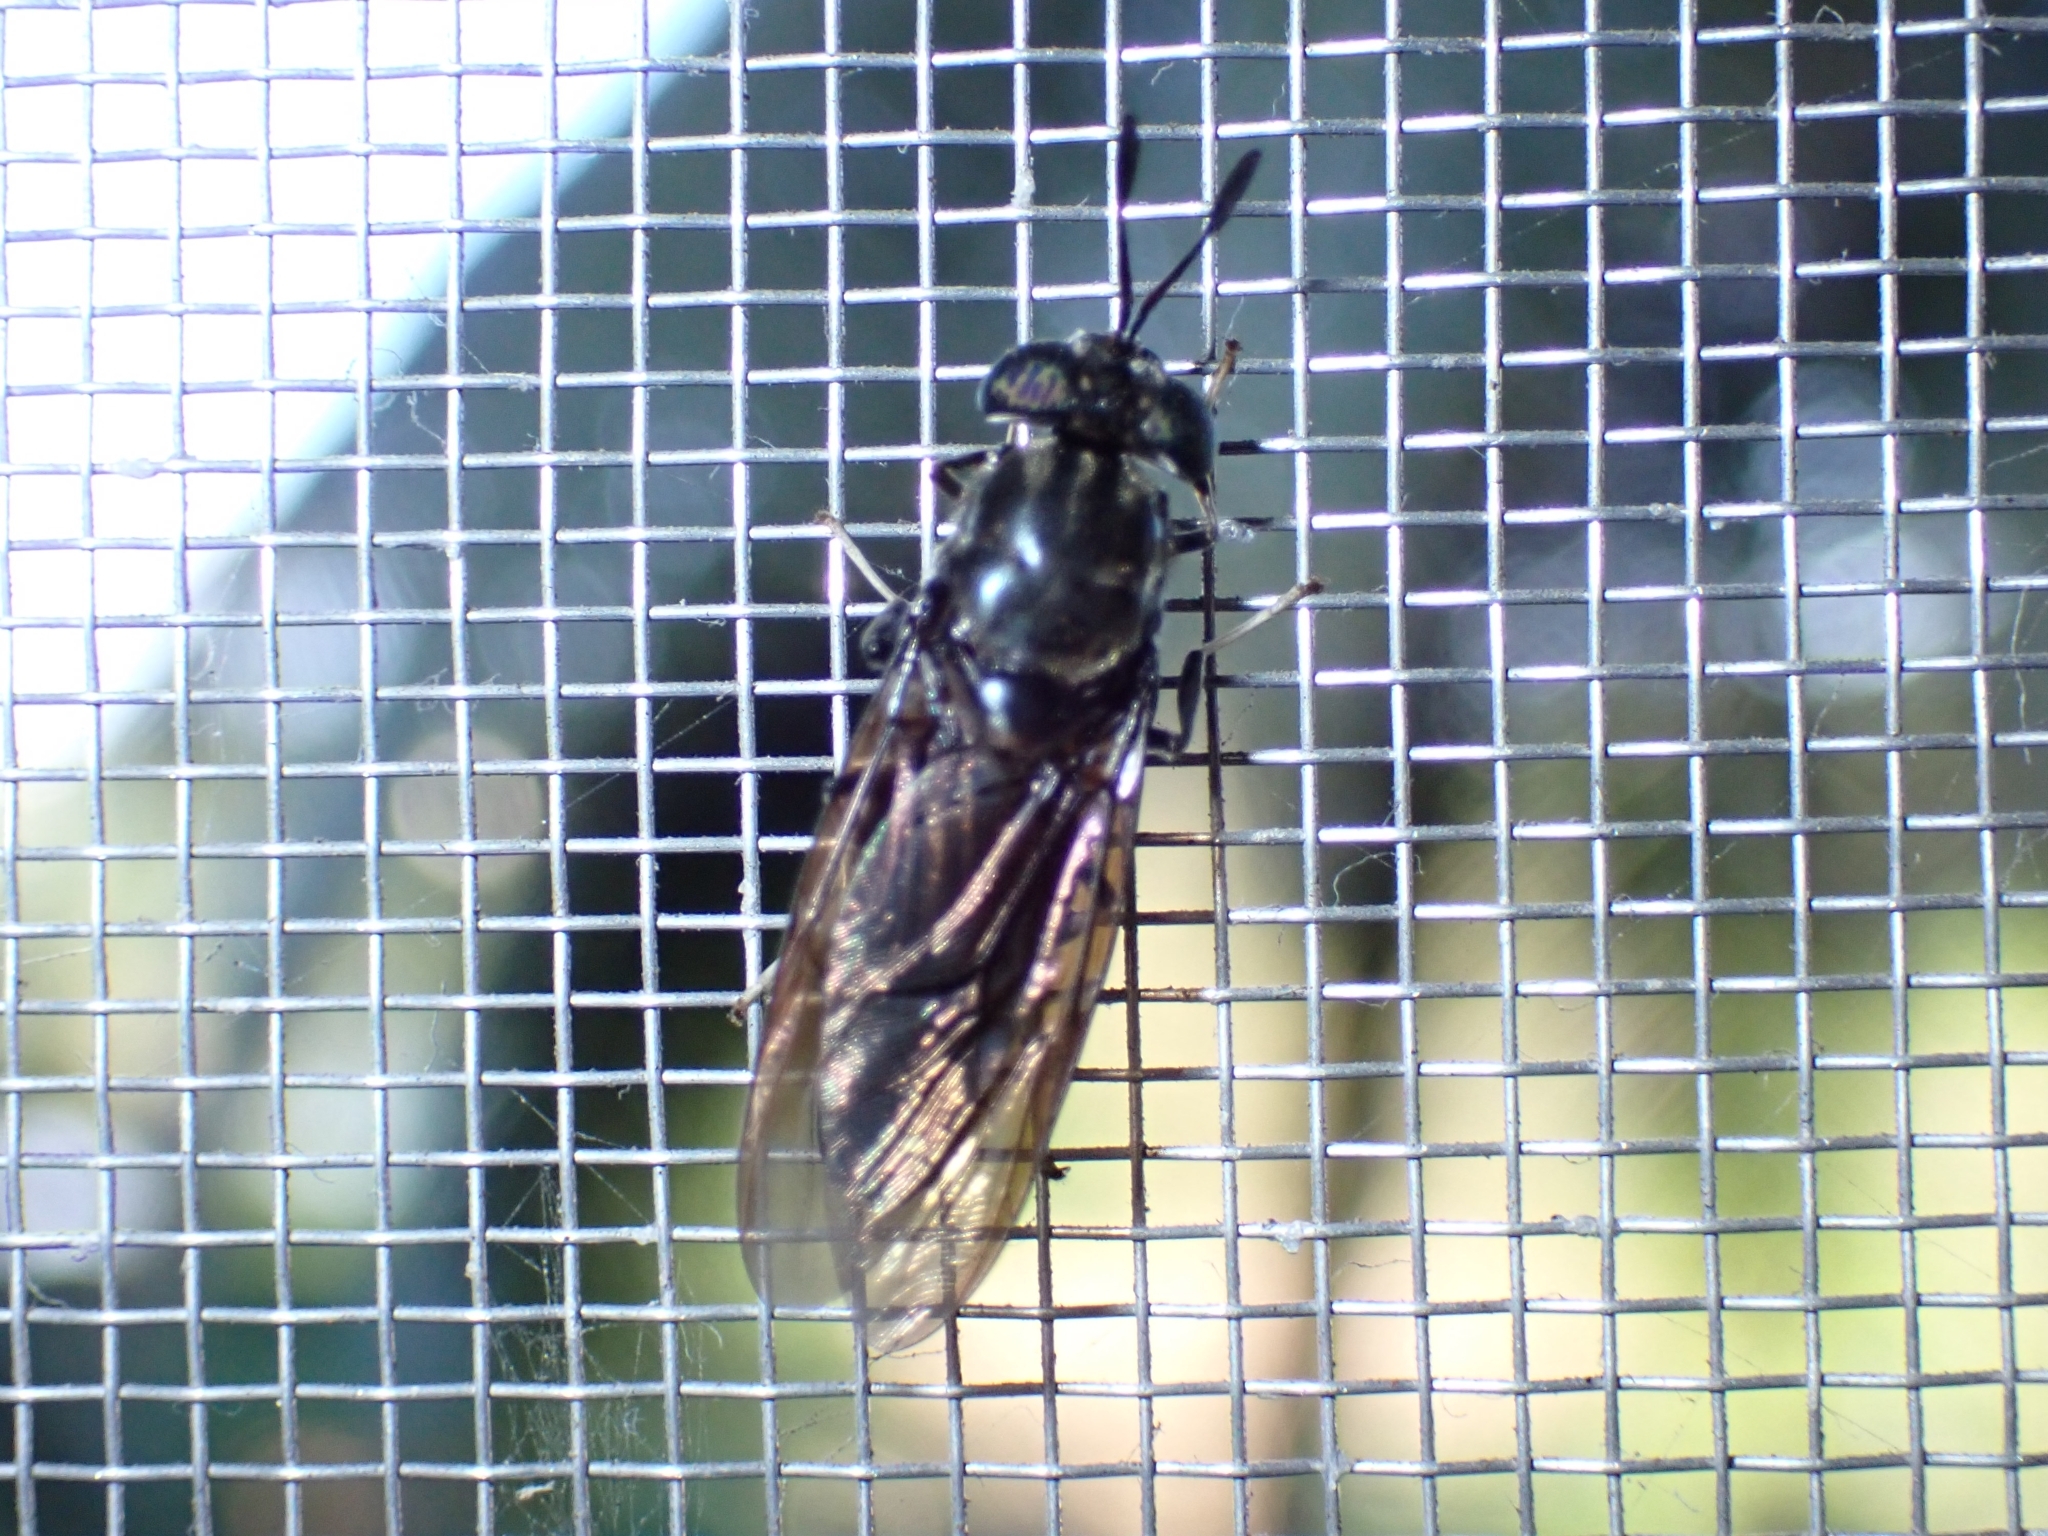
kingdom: Animalia
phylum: Arthropoda
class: Insecta
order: Diptera
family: Stratiomyidae
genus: Hermetia
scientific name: Hermetia illucens
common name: Black soldier fly
